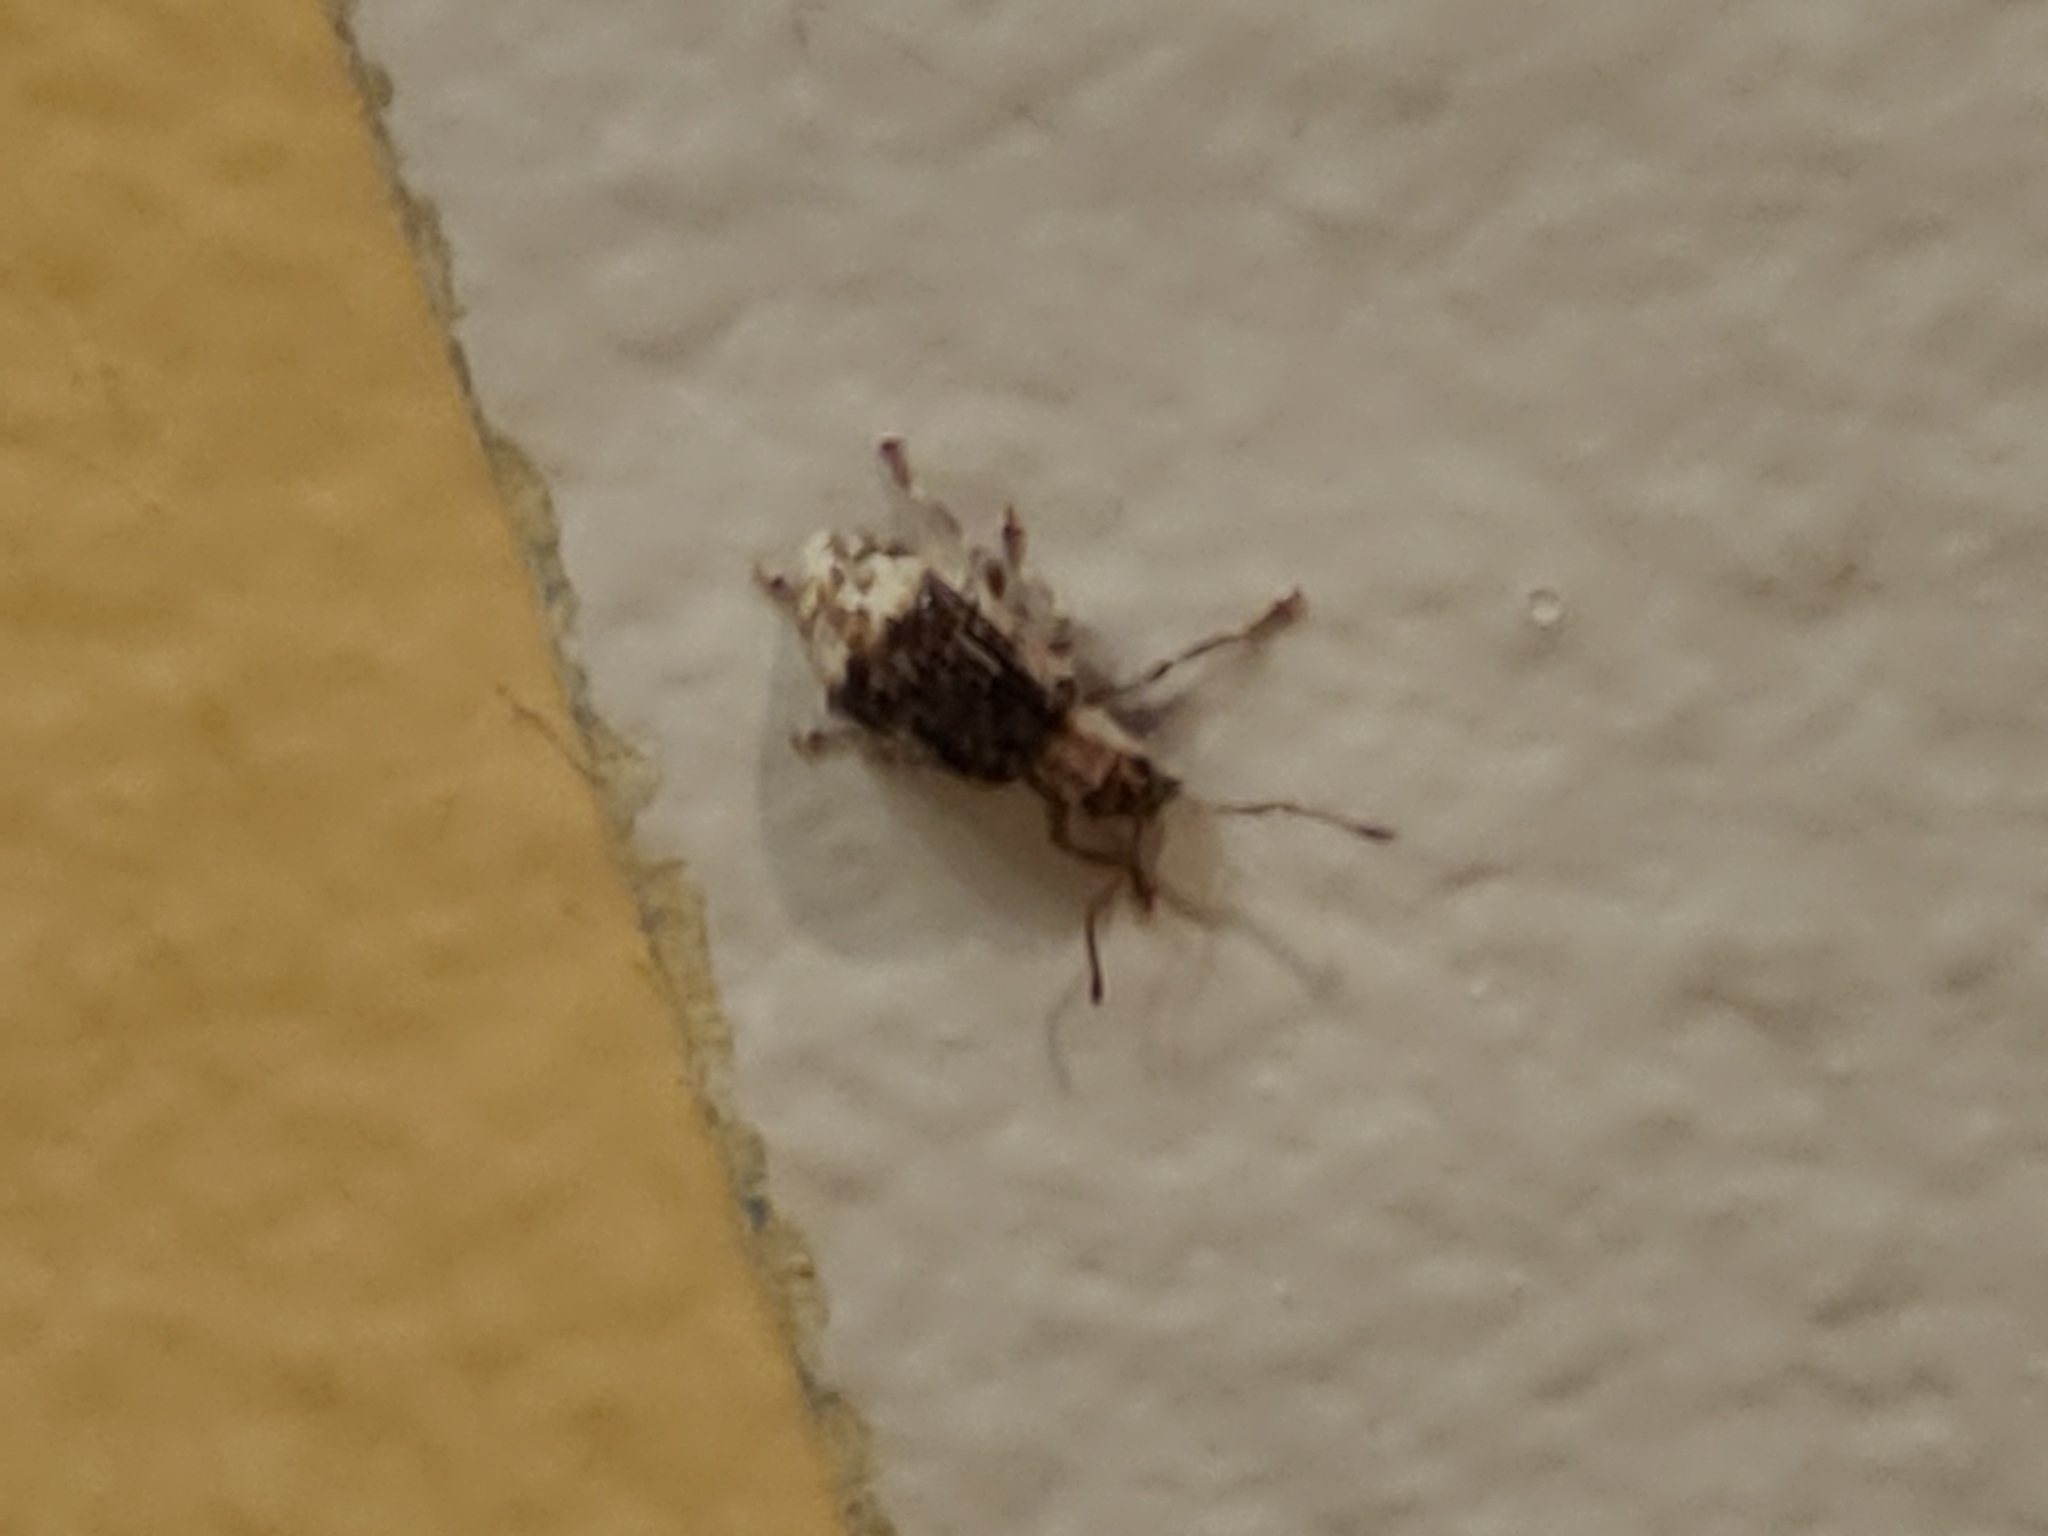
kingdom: Animalia
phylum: Arthropoda
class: Insecta
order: Coleoptera
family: Curculionidae
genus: Pseudoedophrys
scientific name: Pseudoedophrys hilleri
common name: Weevil
